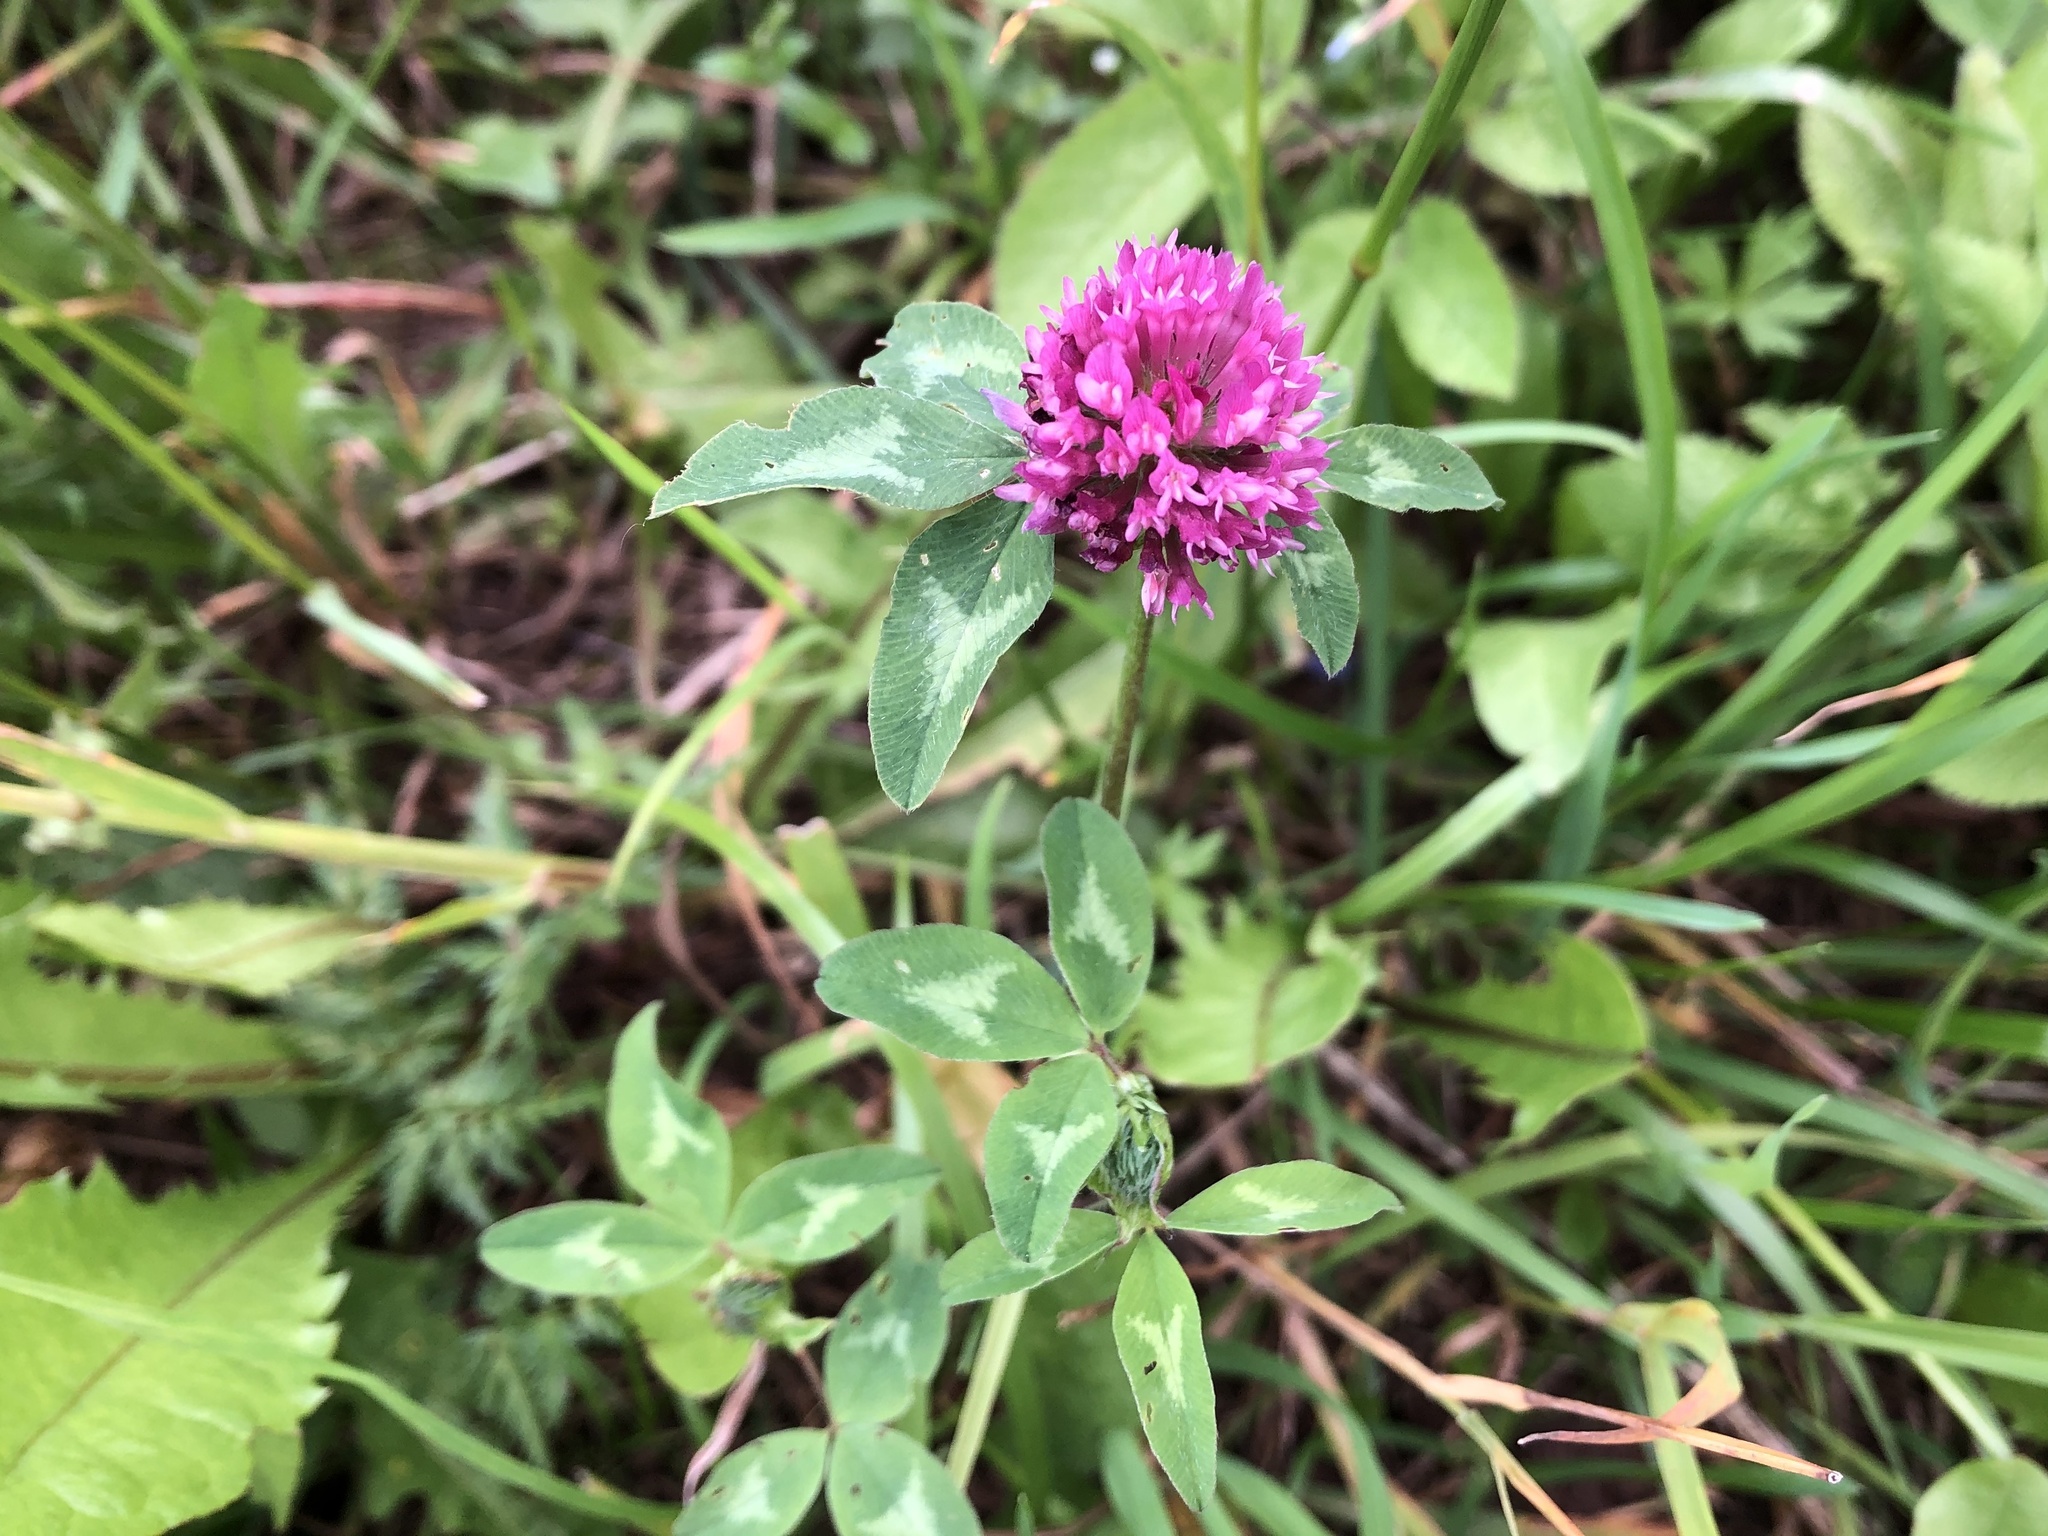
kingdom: Plantae
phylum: Tracheophyta
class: Magnoliopsida
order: Fabales
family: Fabaceae
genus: Trifolium
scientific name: Trifolium pratense
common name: Red clover
